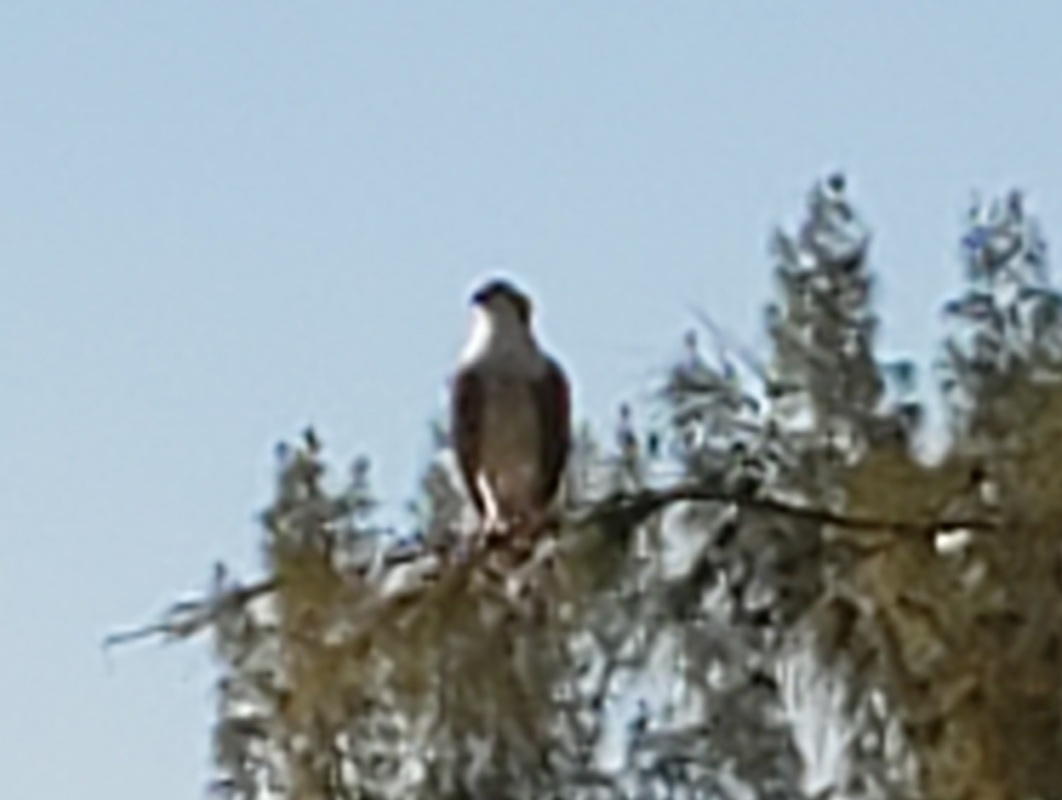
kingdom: Animalia
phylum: Chordata
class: Aves
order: Accipitriformes
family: Pandionidae
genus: Pandion
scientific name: Pandion haliaetus
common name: Osprey
